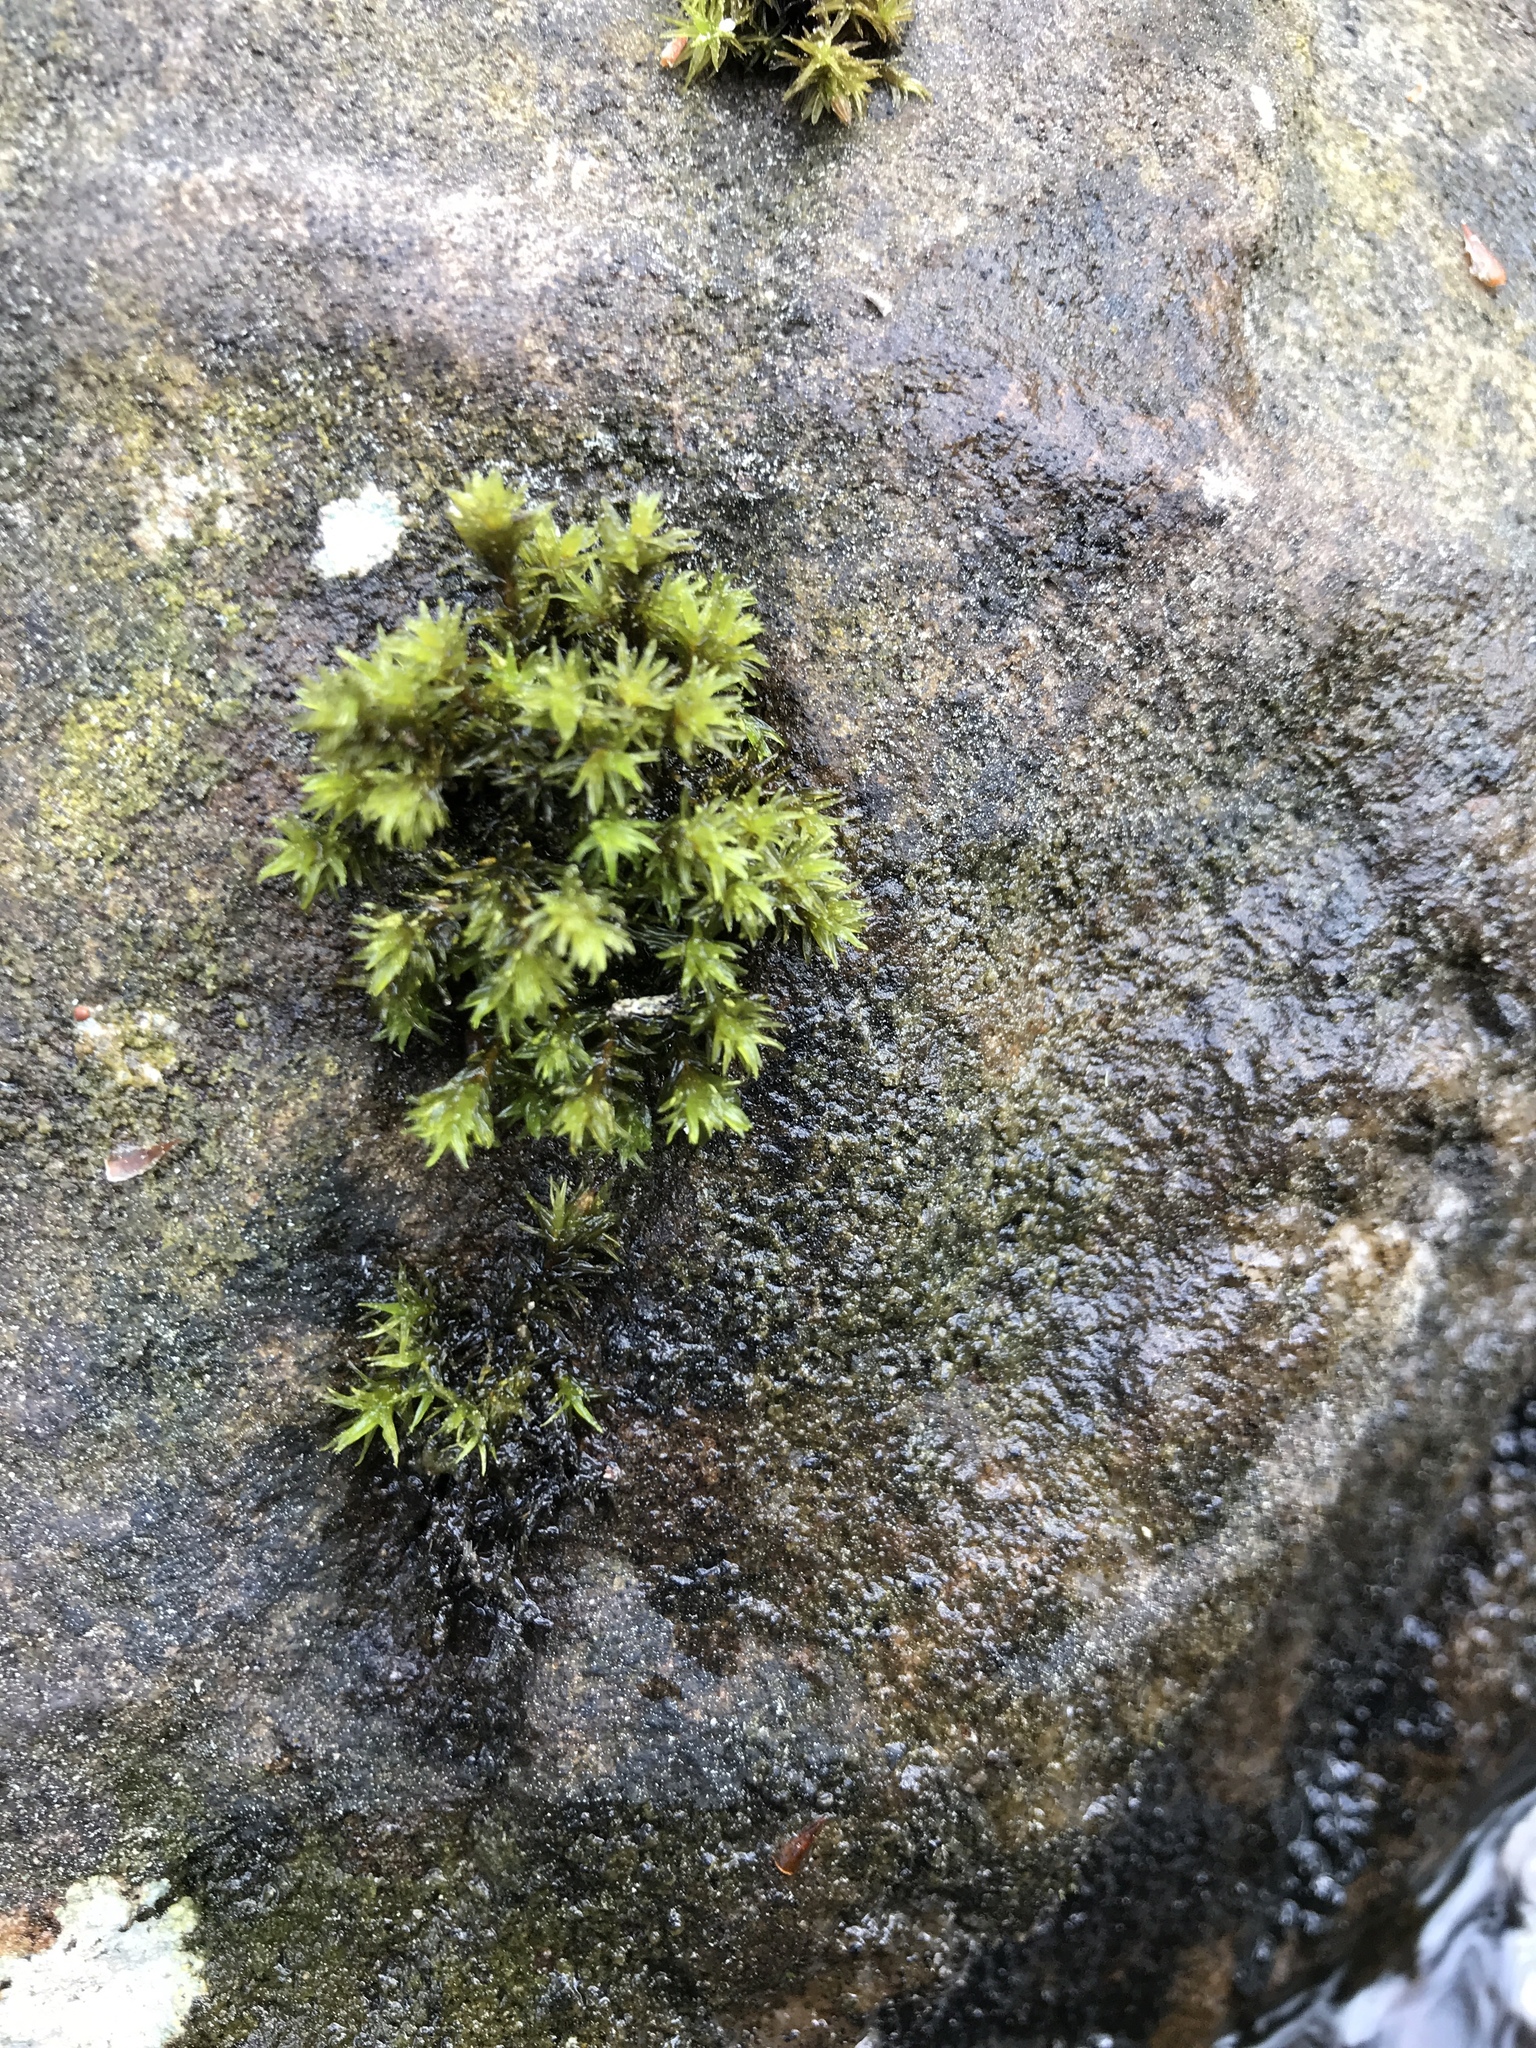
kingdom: Plantae
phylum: Bryophyta
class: Bryopsida
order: Grimmiales
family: Grimmiaceae
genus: Codriophorus
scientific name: Codriophorus acicularis
